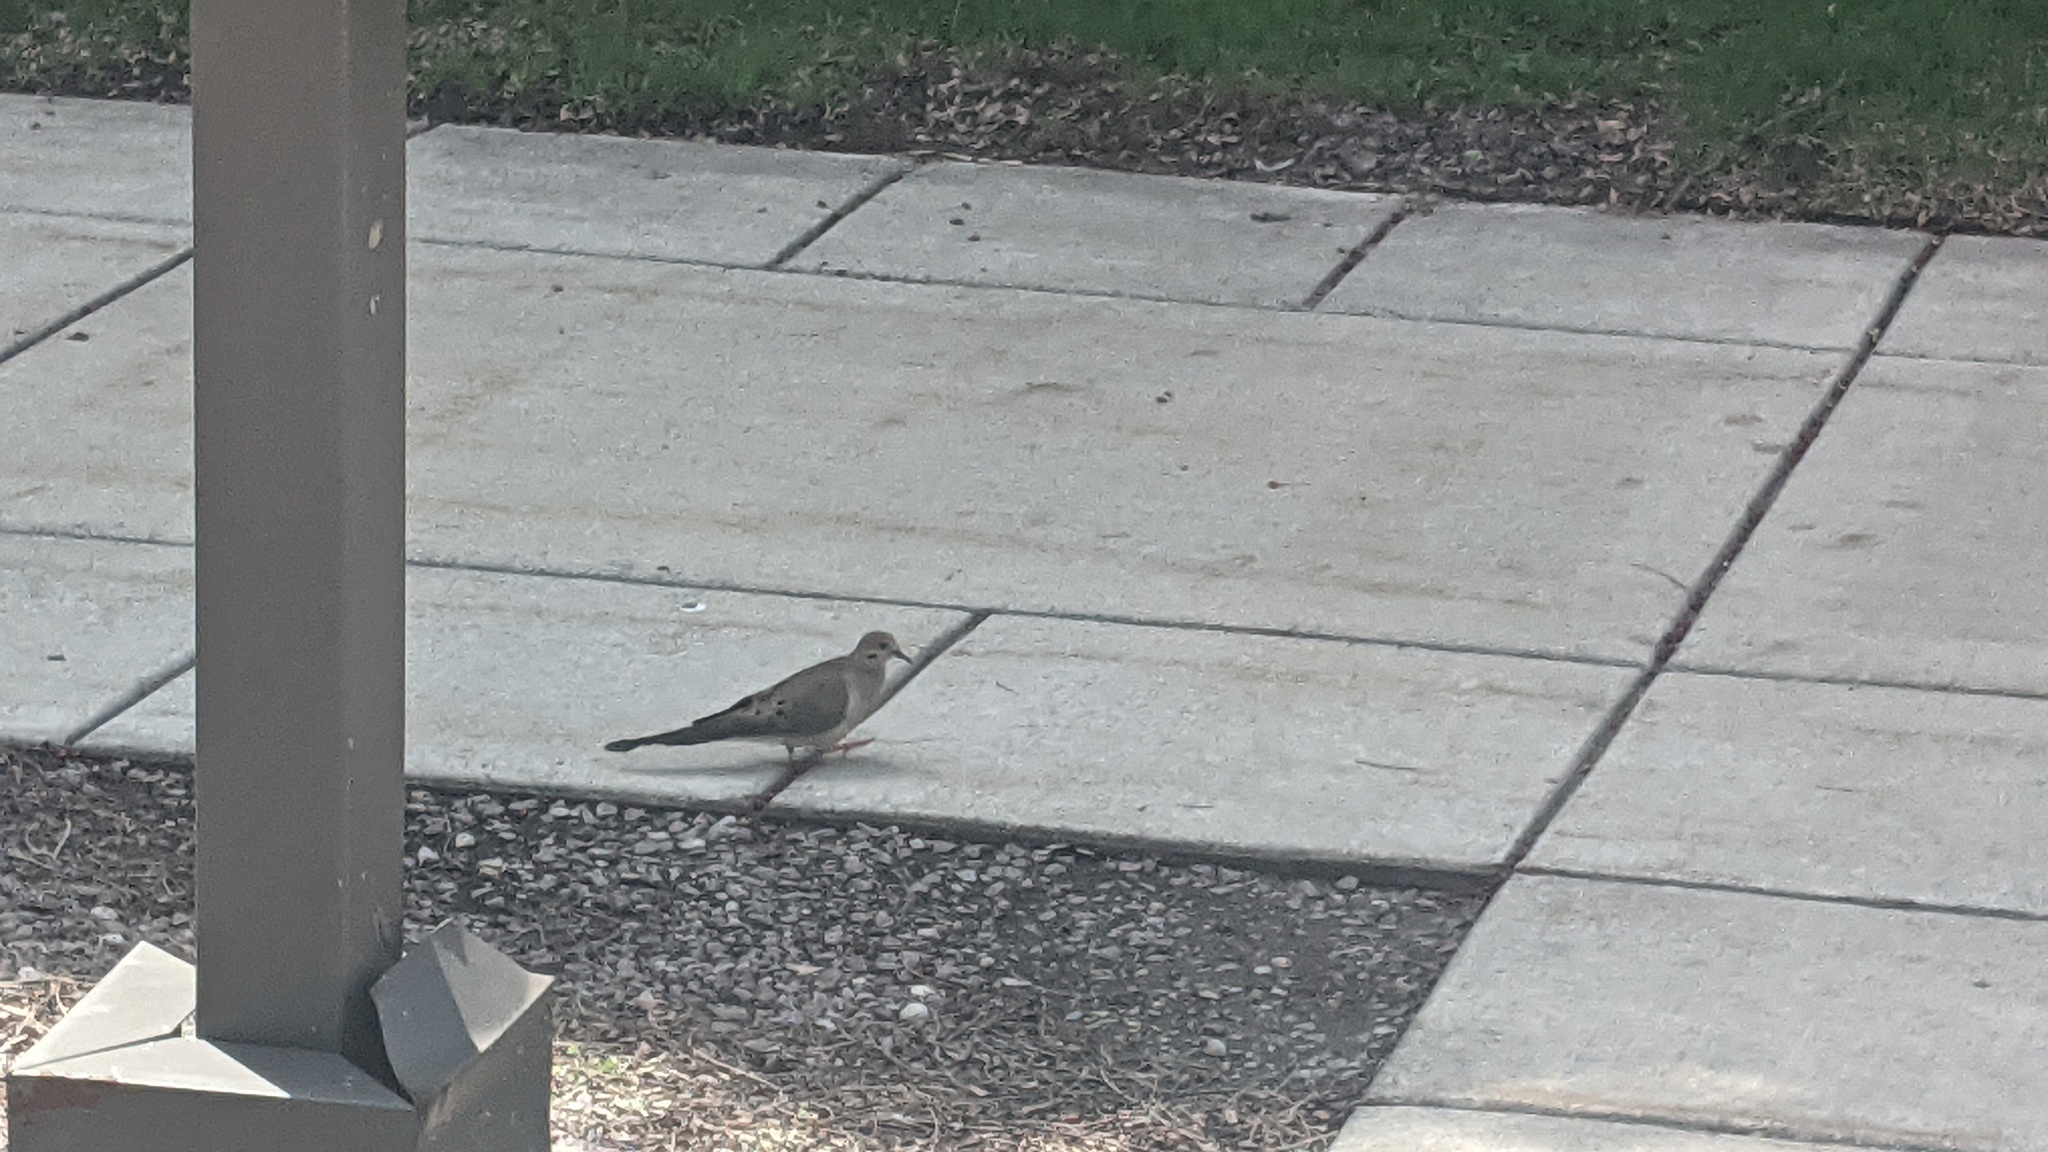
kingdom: Animalia
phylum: Chordata
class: Aves
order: Columbiformes
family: Columbidae
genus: Zenaida
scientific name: Zenaida macroura
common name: Mourning dove
